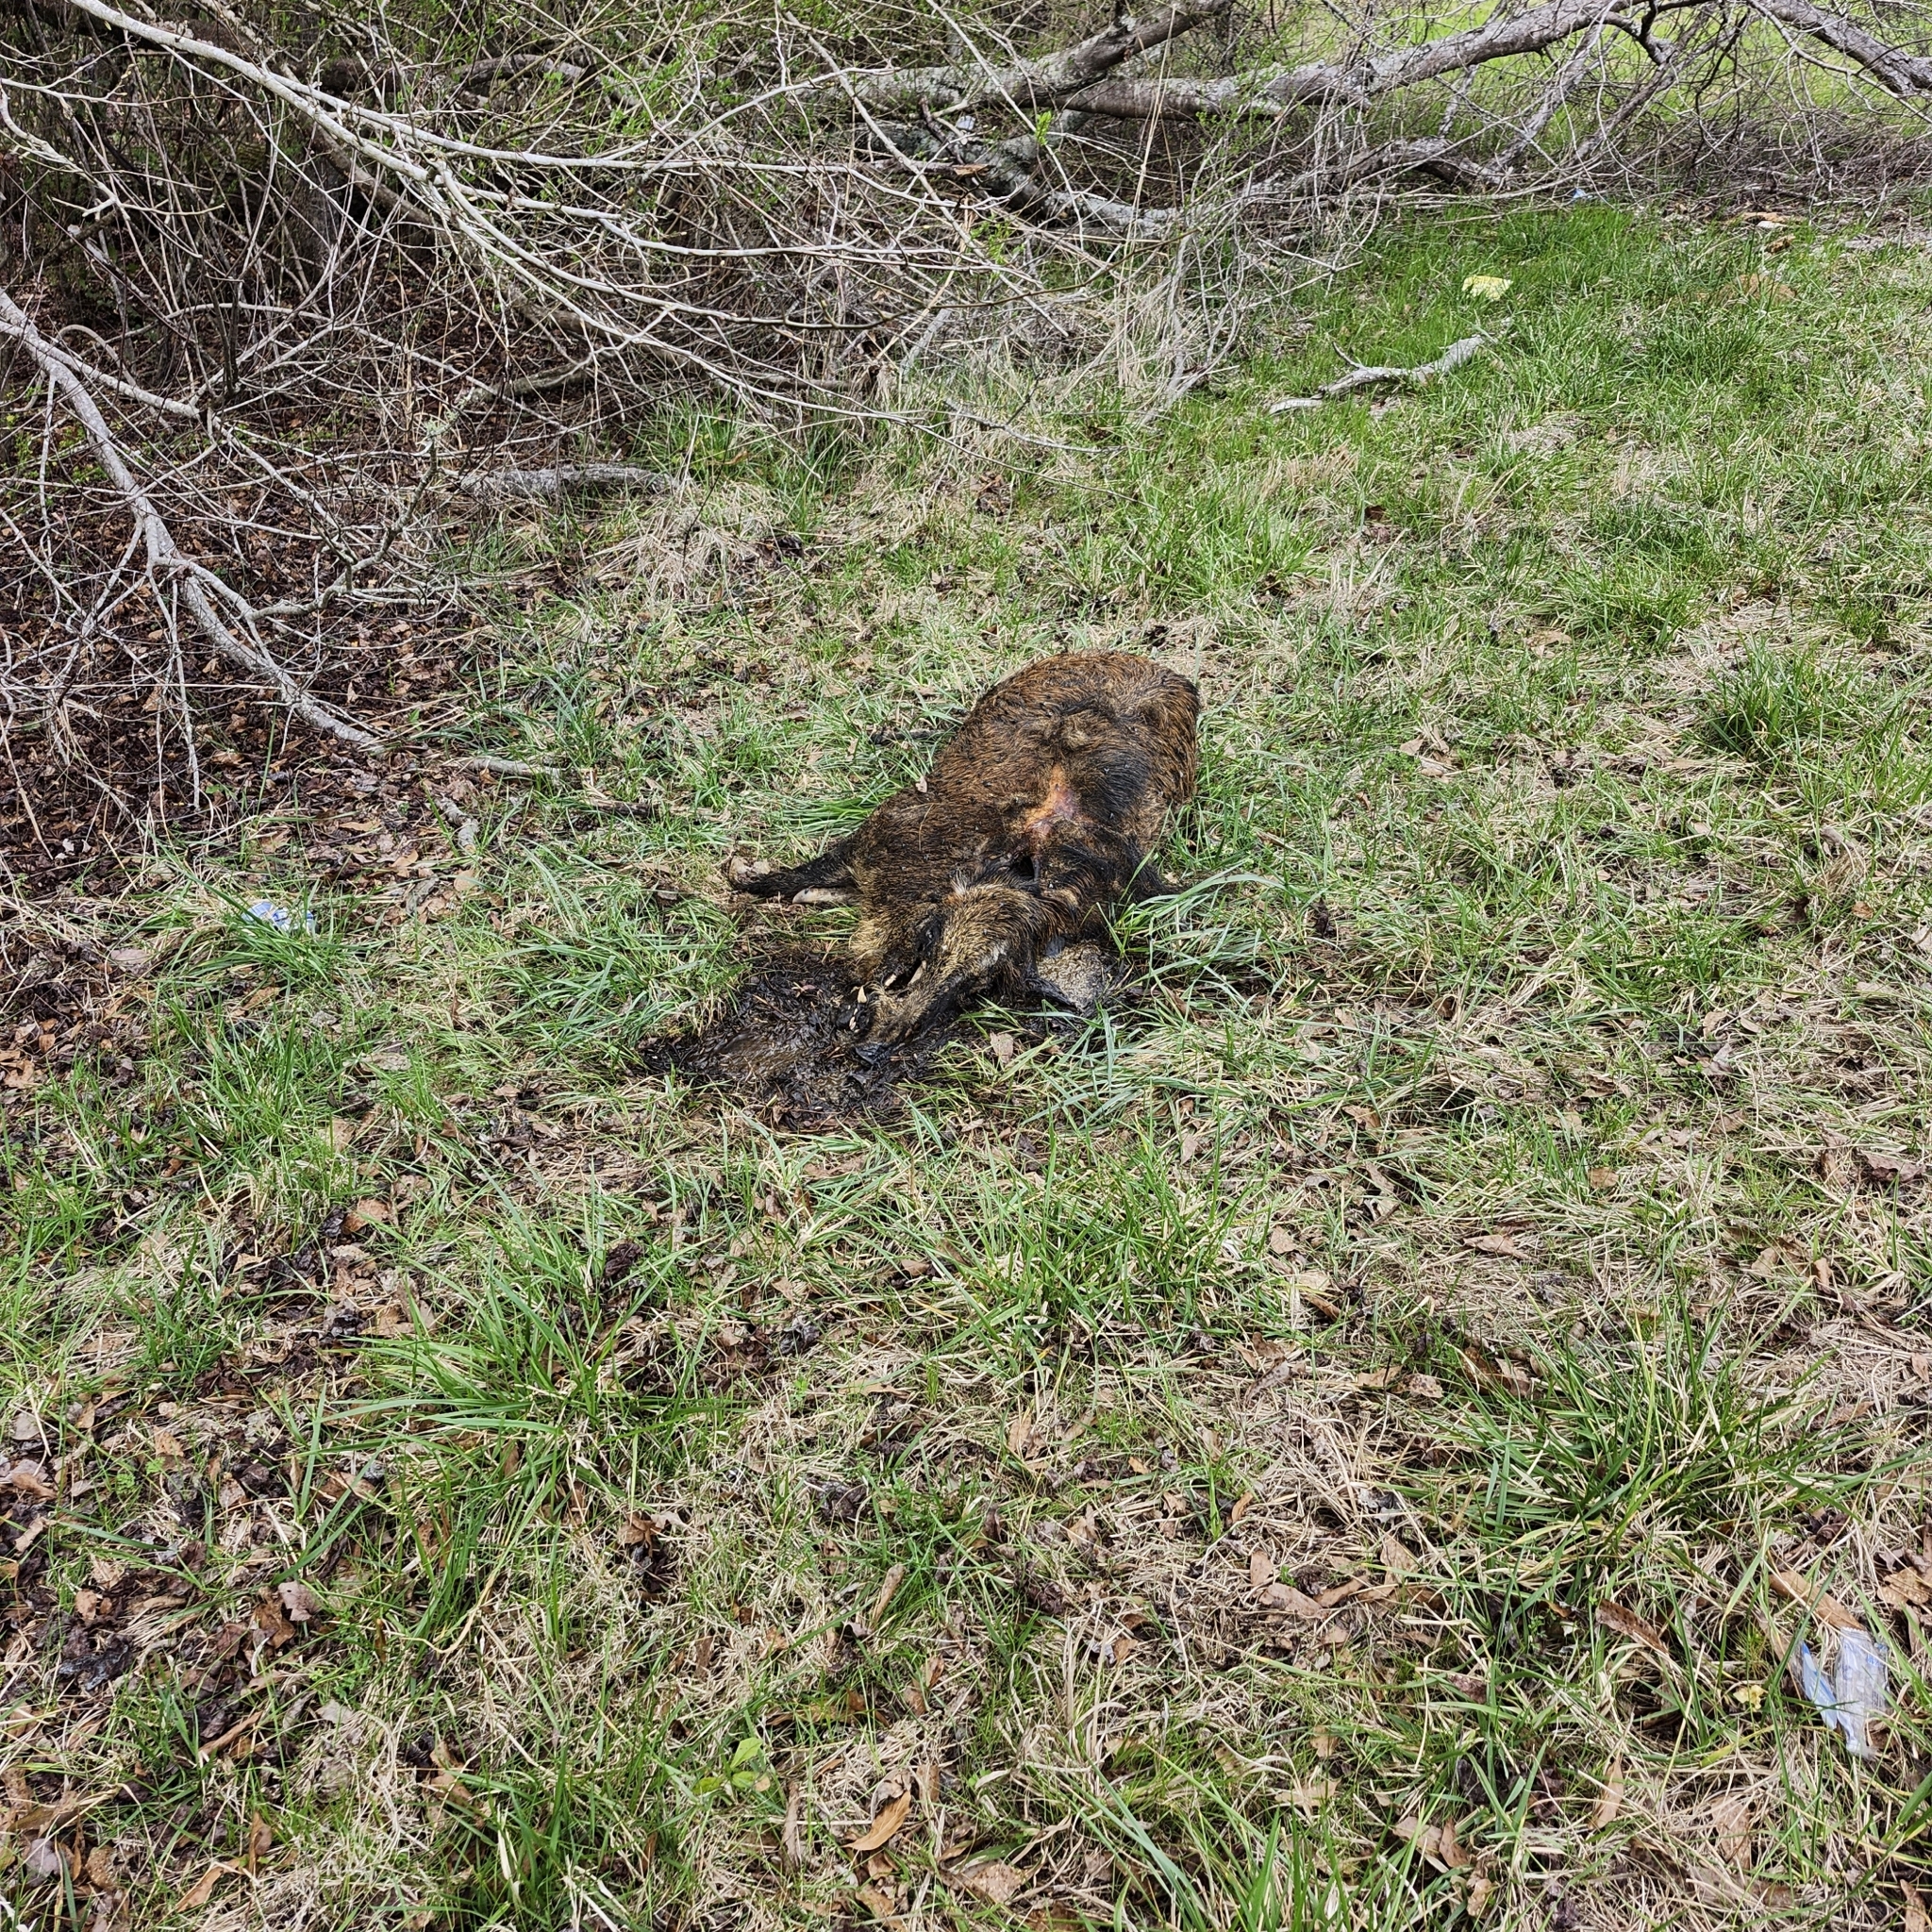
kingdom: Animalia
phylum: Chordata
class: Mammalia
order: Artiodactyla
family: Suidae
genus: Sus
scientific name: Sus scrofa
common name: Wild boar
